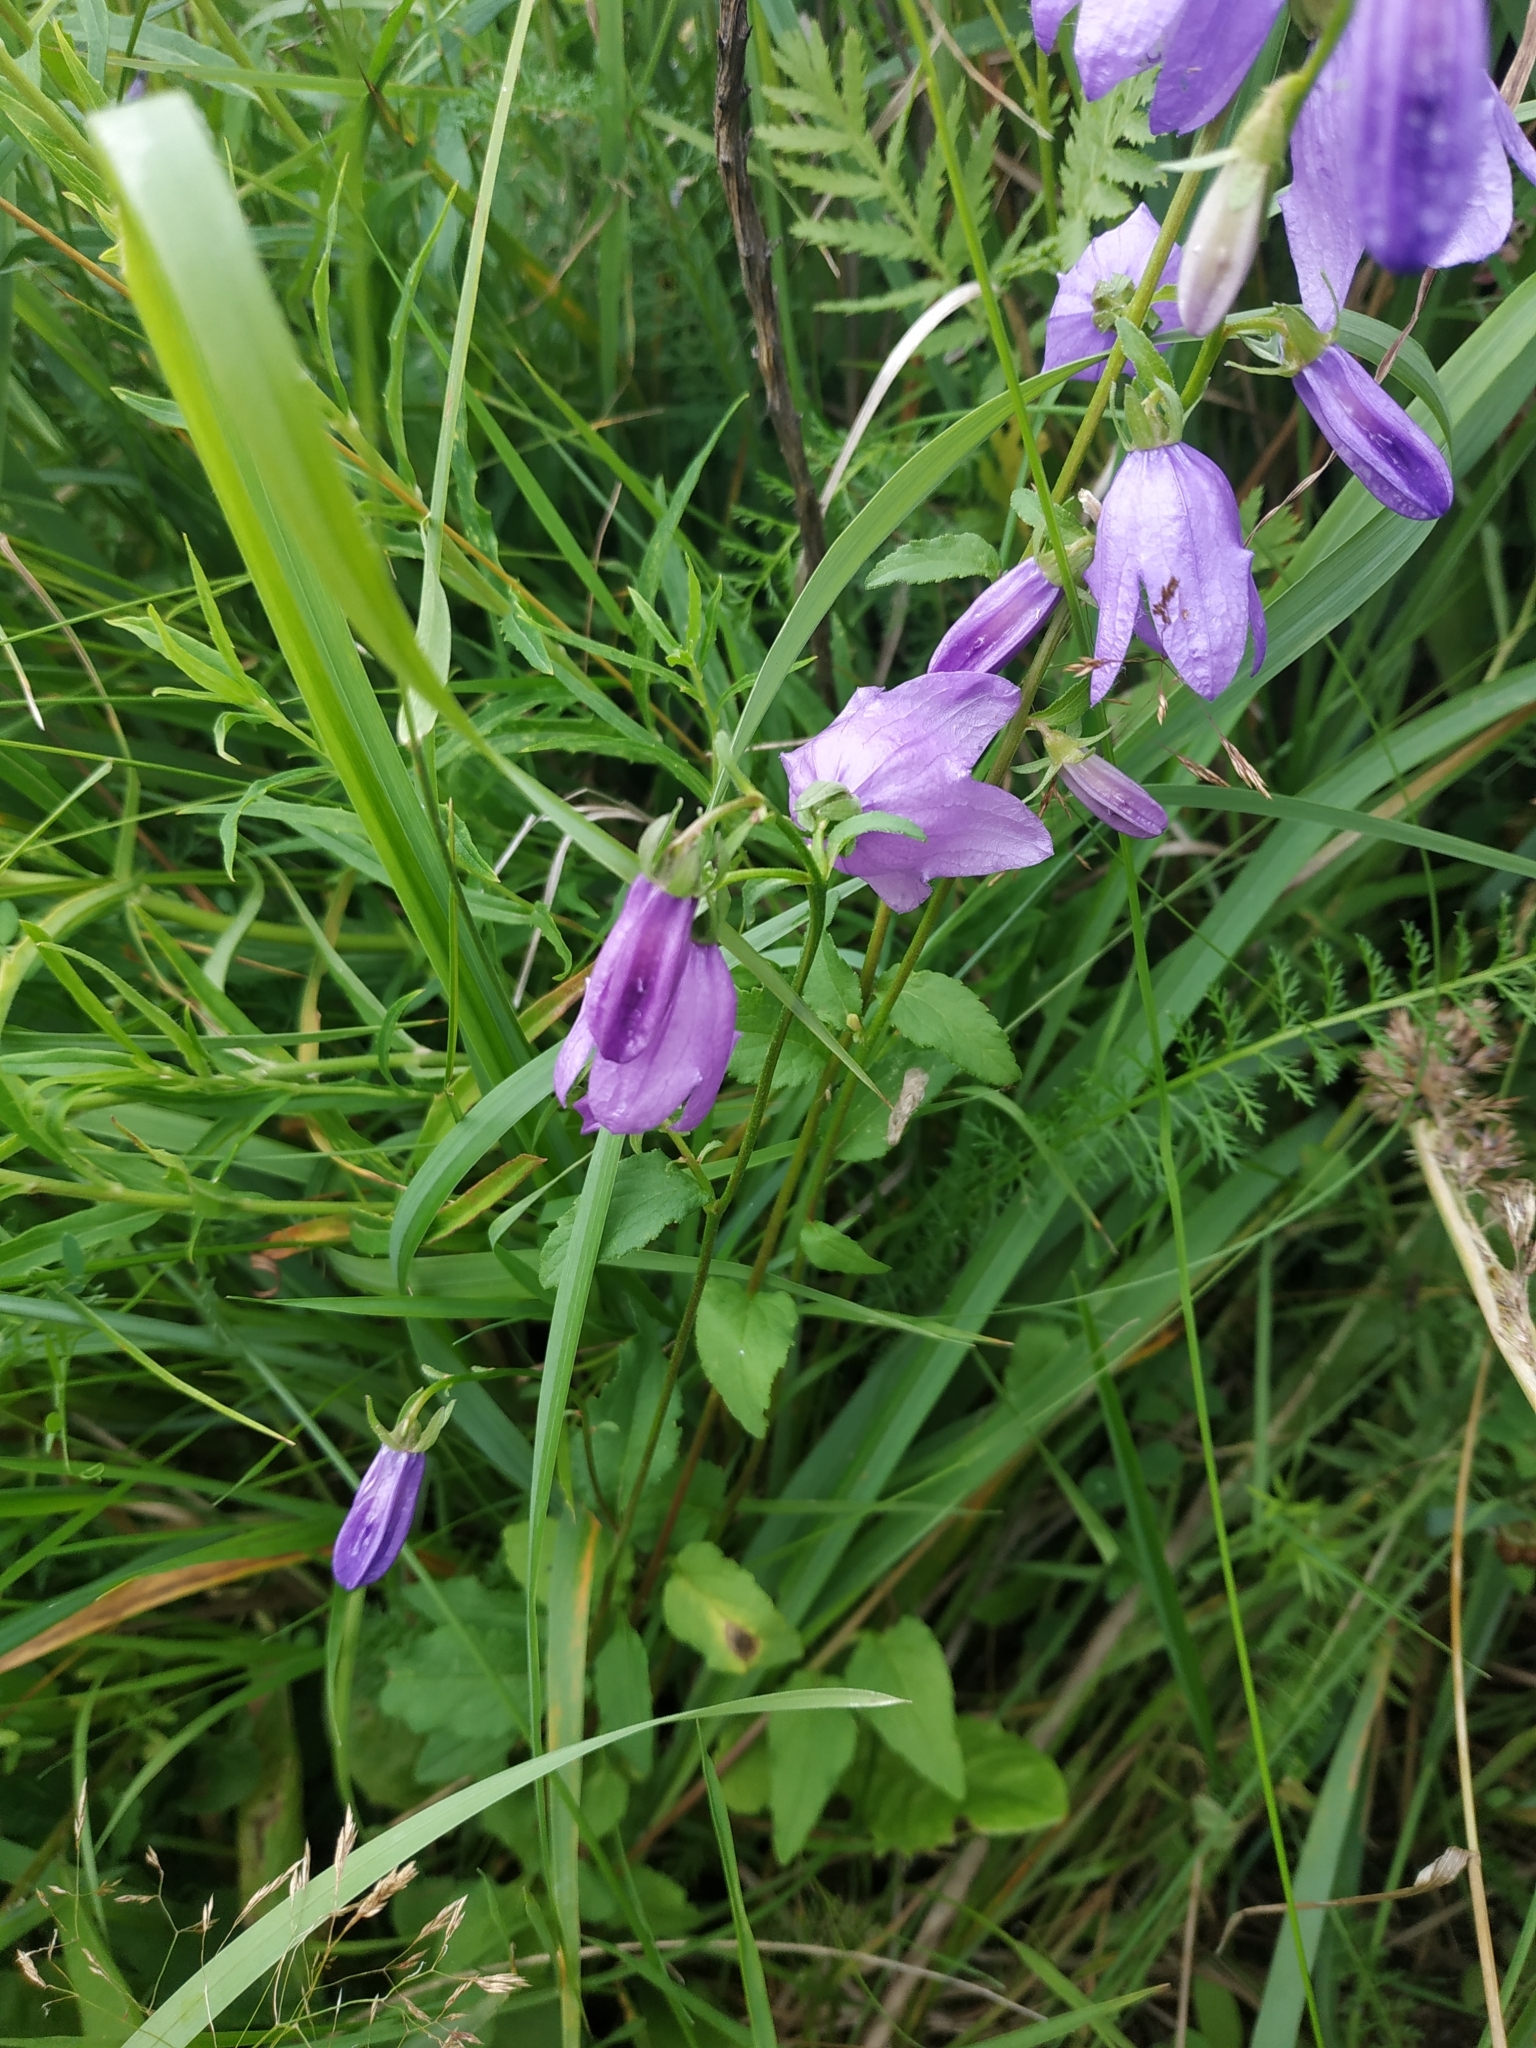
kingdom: Plantae
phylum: Tracheophyta
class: Magnoliopsida
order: Asterales
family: Campanulaceae
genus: Campanula
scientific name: Campanula rapunculoides
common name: Creeping bellflower
